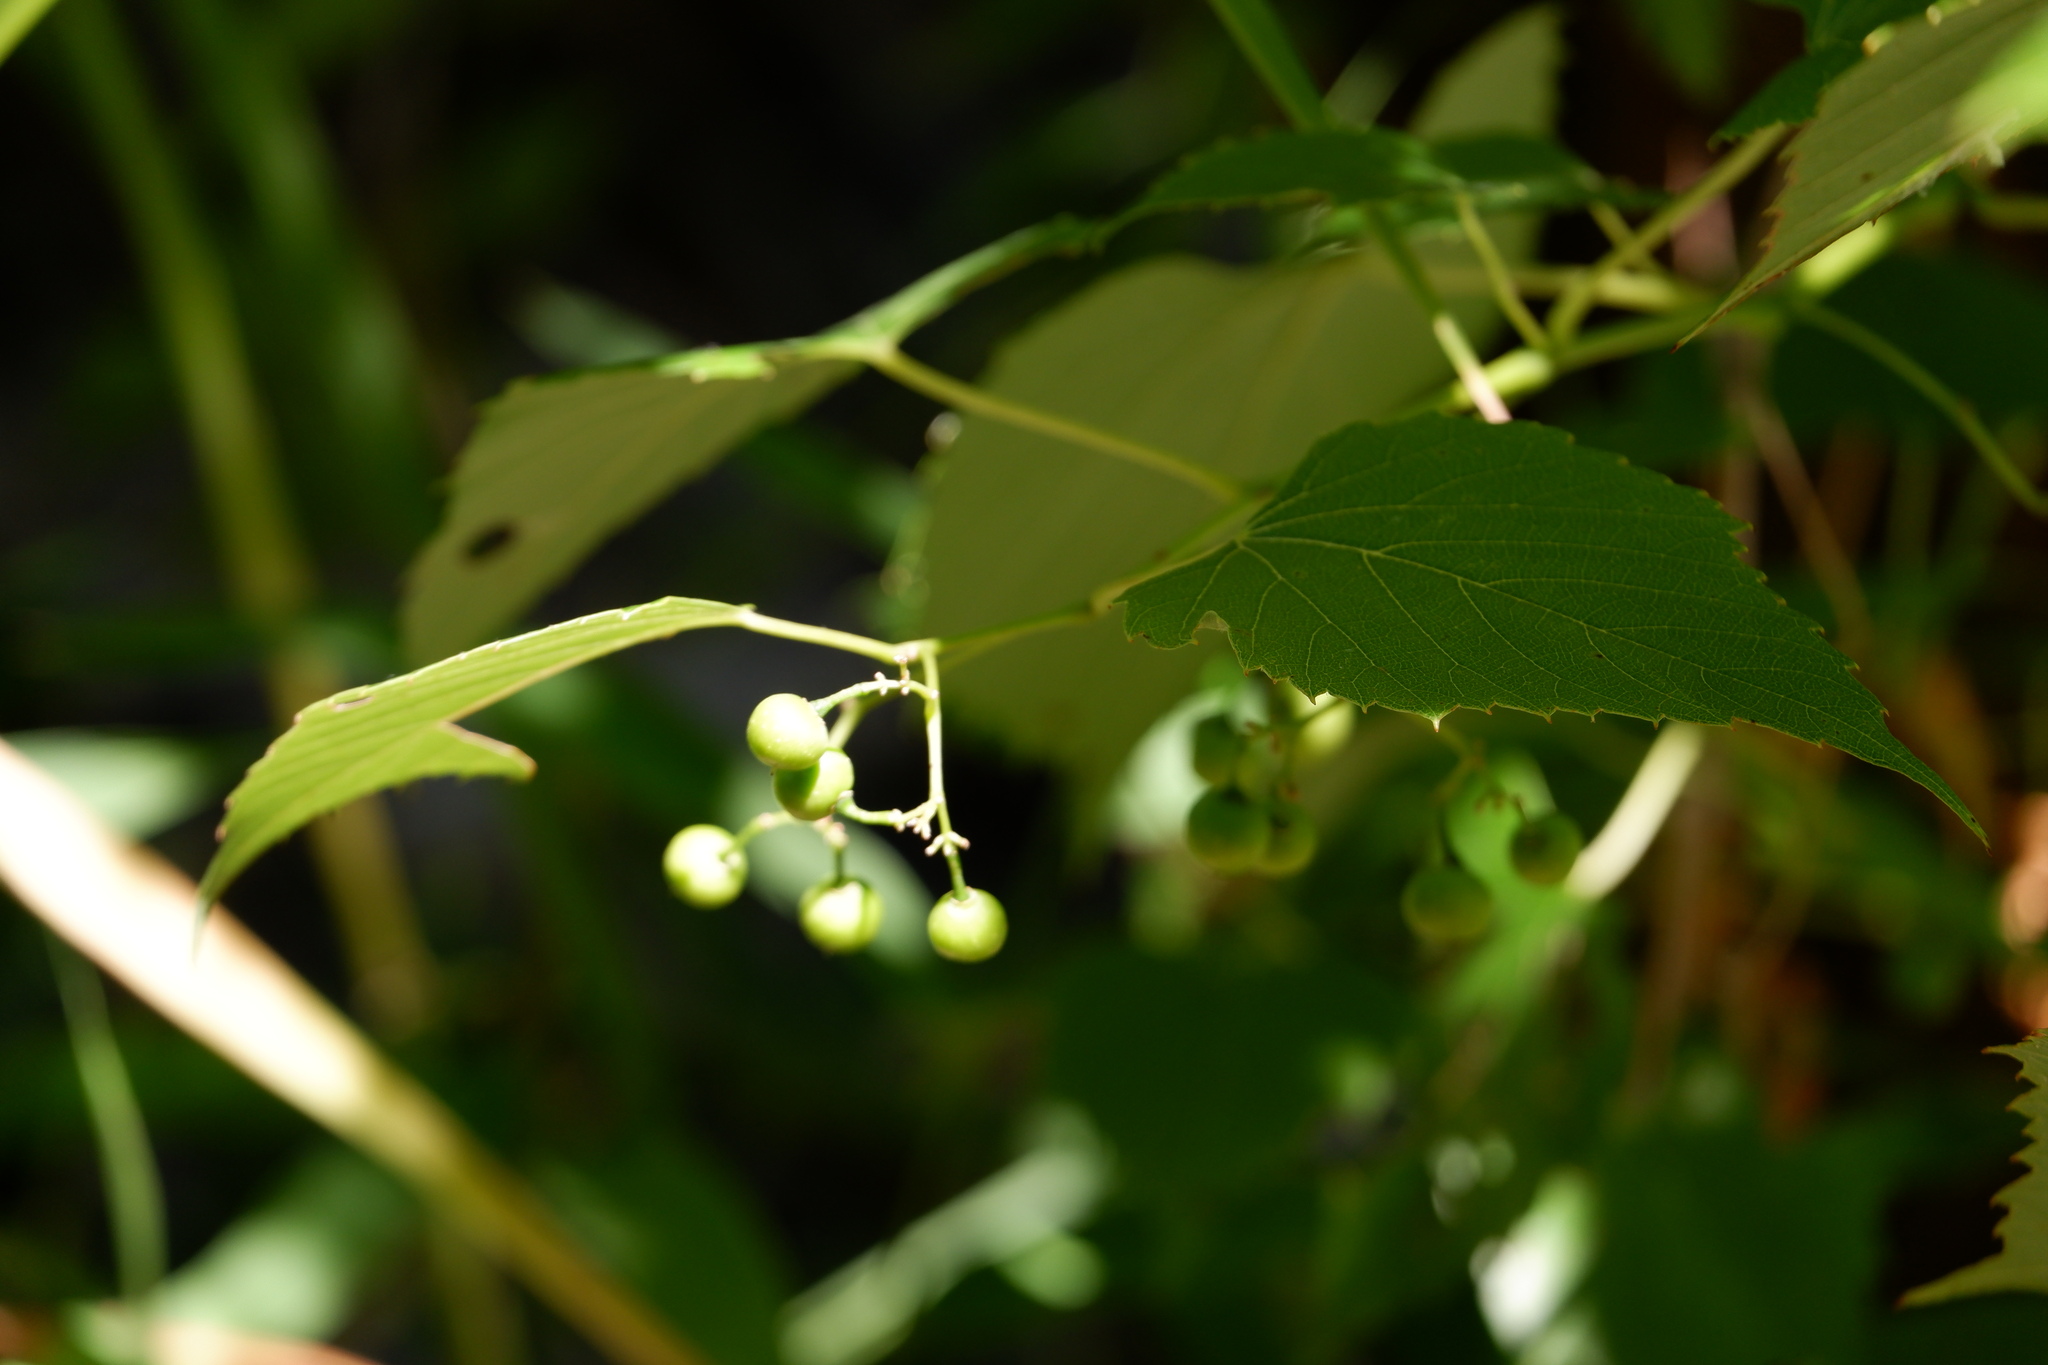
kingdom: Plantae
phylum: Tracheophyta
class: Magnoliopsida
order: Vitales
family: Vitaceae
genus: Ampelopsis
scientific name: Ampelopsis cordata
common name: Heart-leaf ampelopsis
